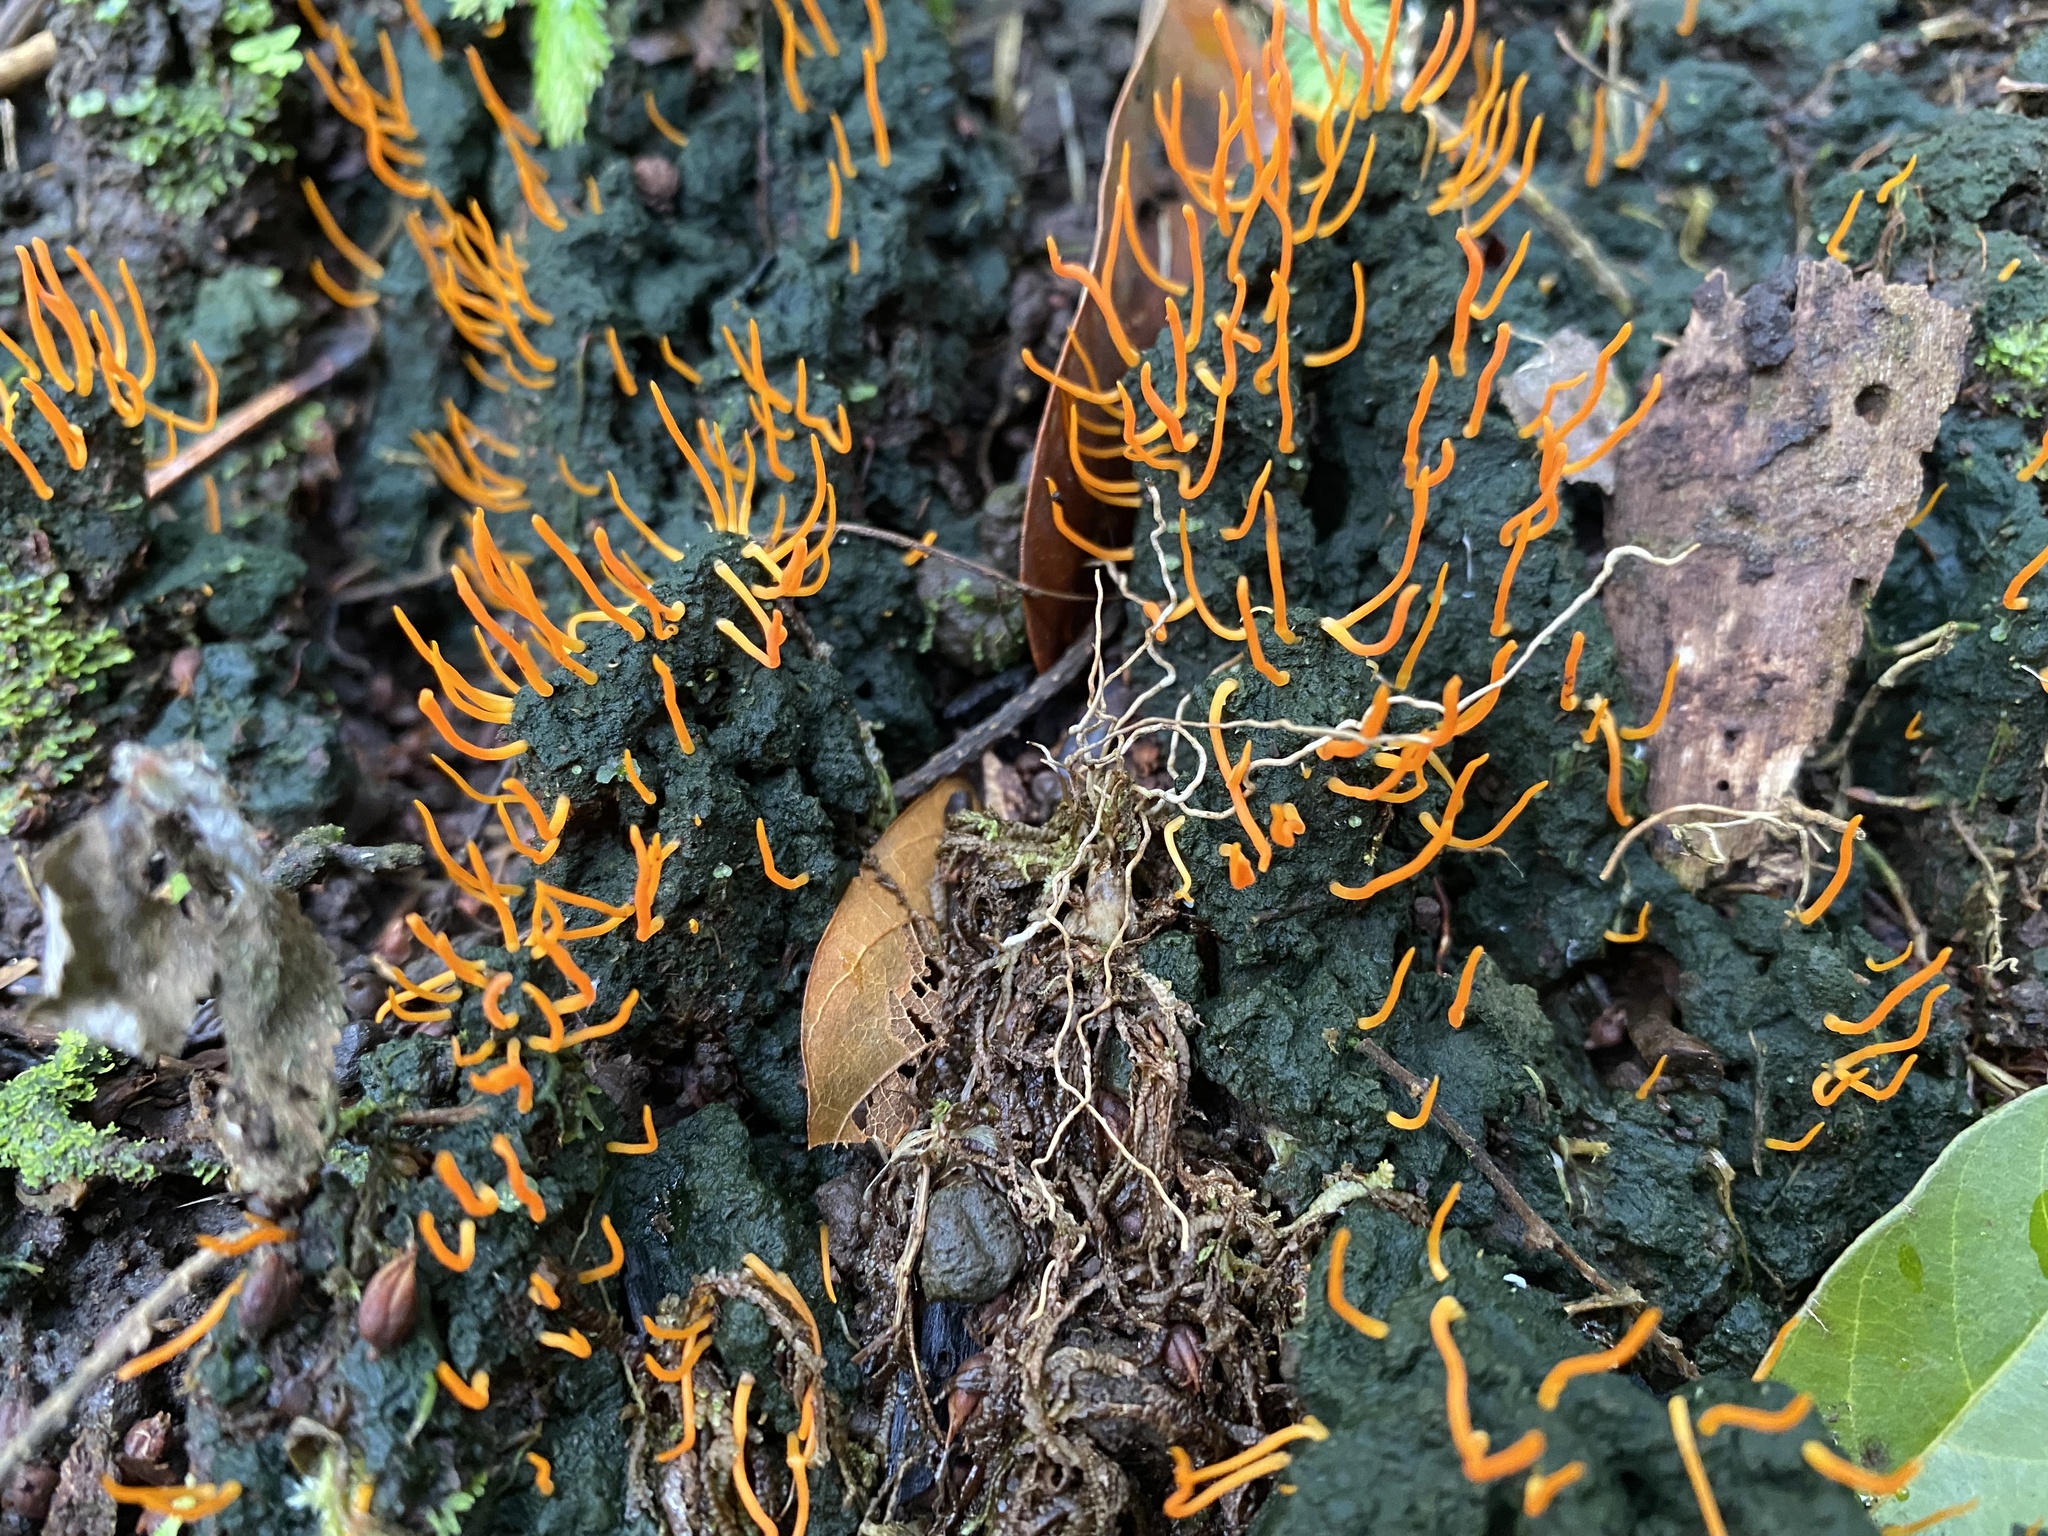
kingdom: Fungi
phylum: Basidiomycota
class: Agaricomycetes
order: Lepidostromatales
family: Lepidostromataceae
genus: Sulzbacheromyces
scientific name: Sulzbacheromyces caatingae
